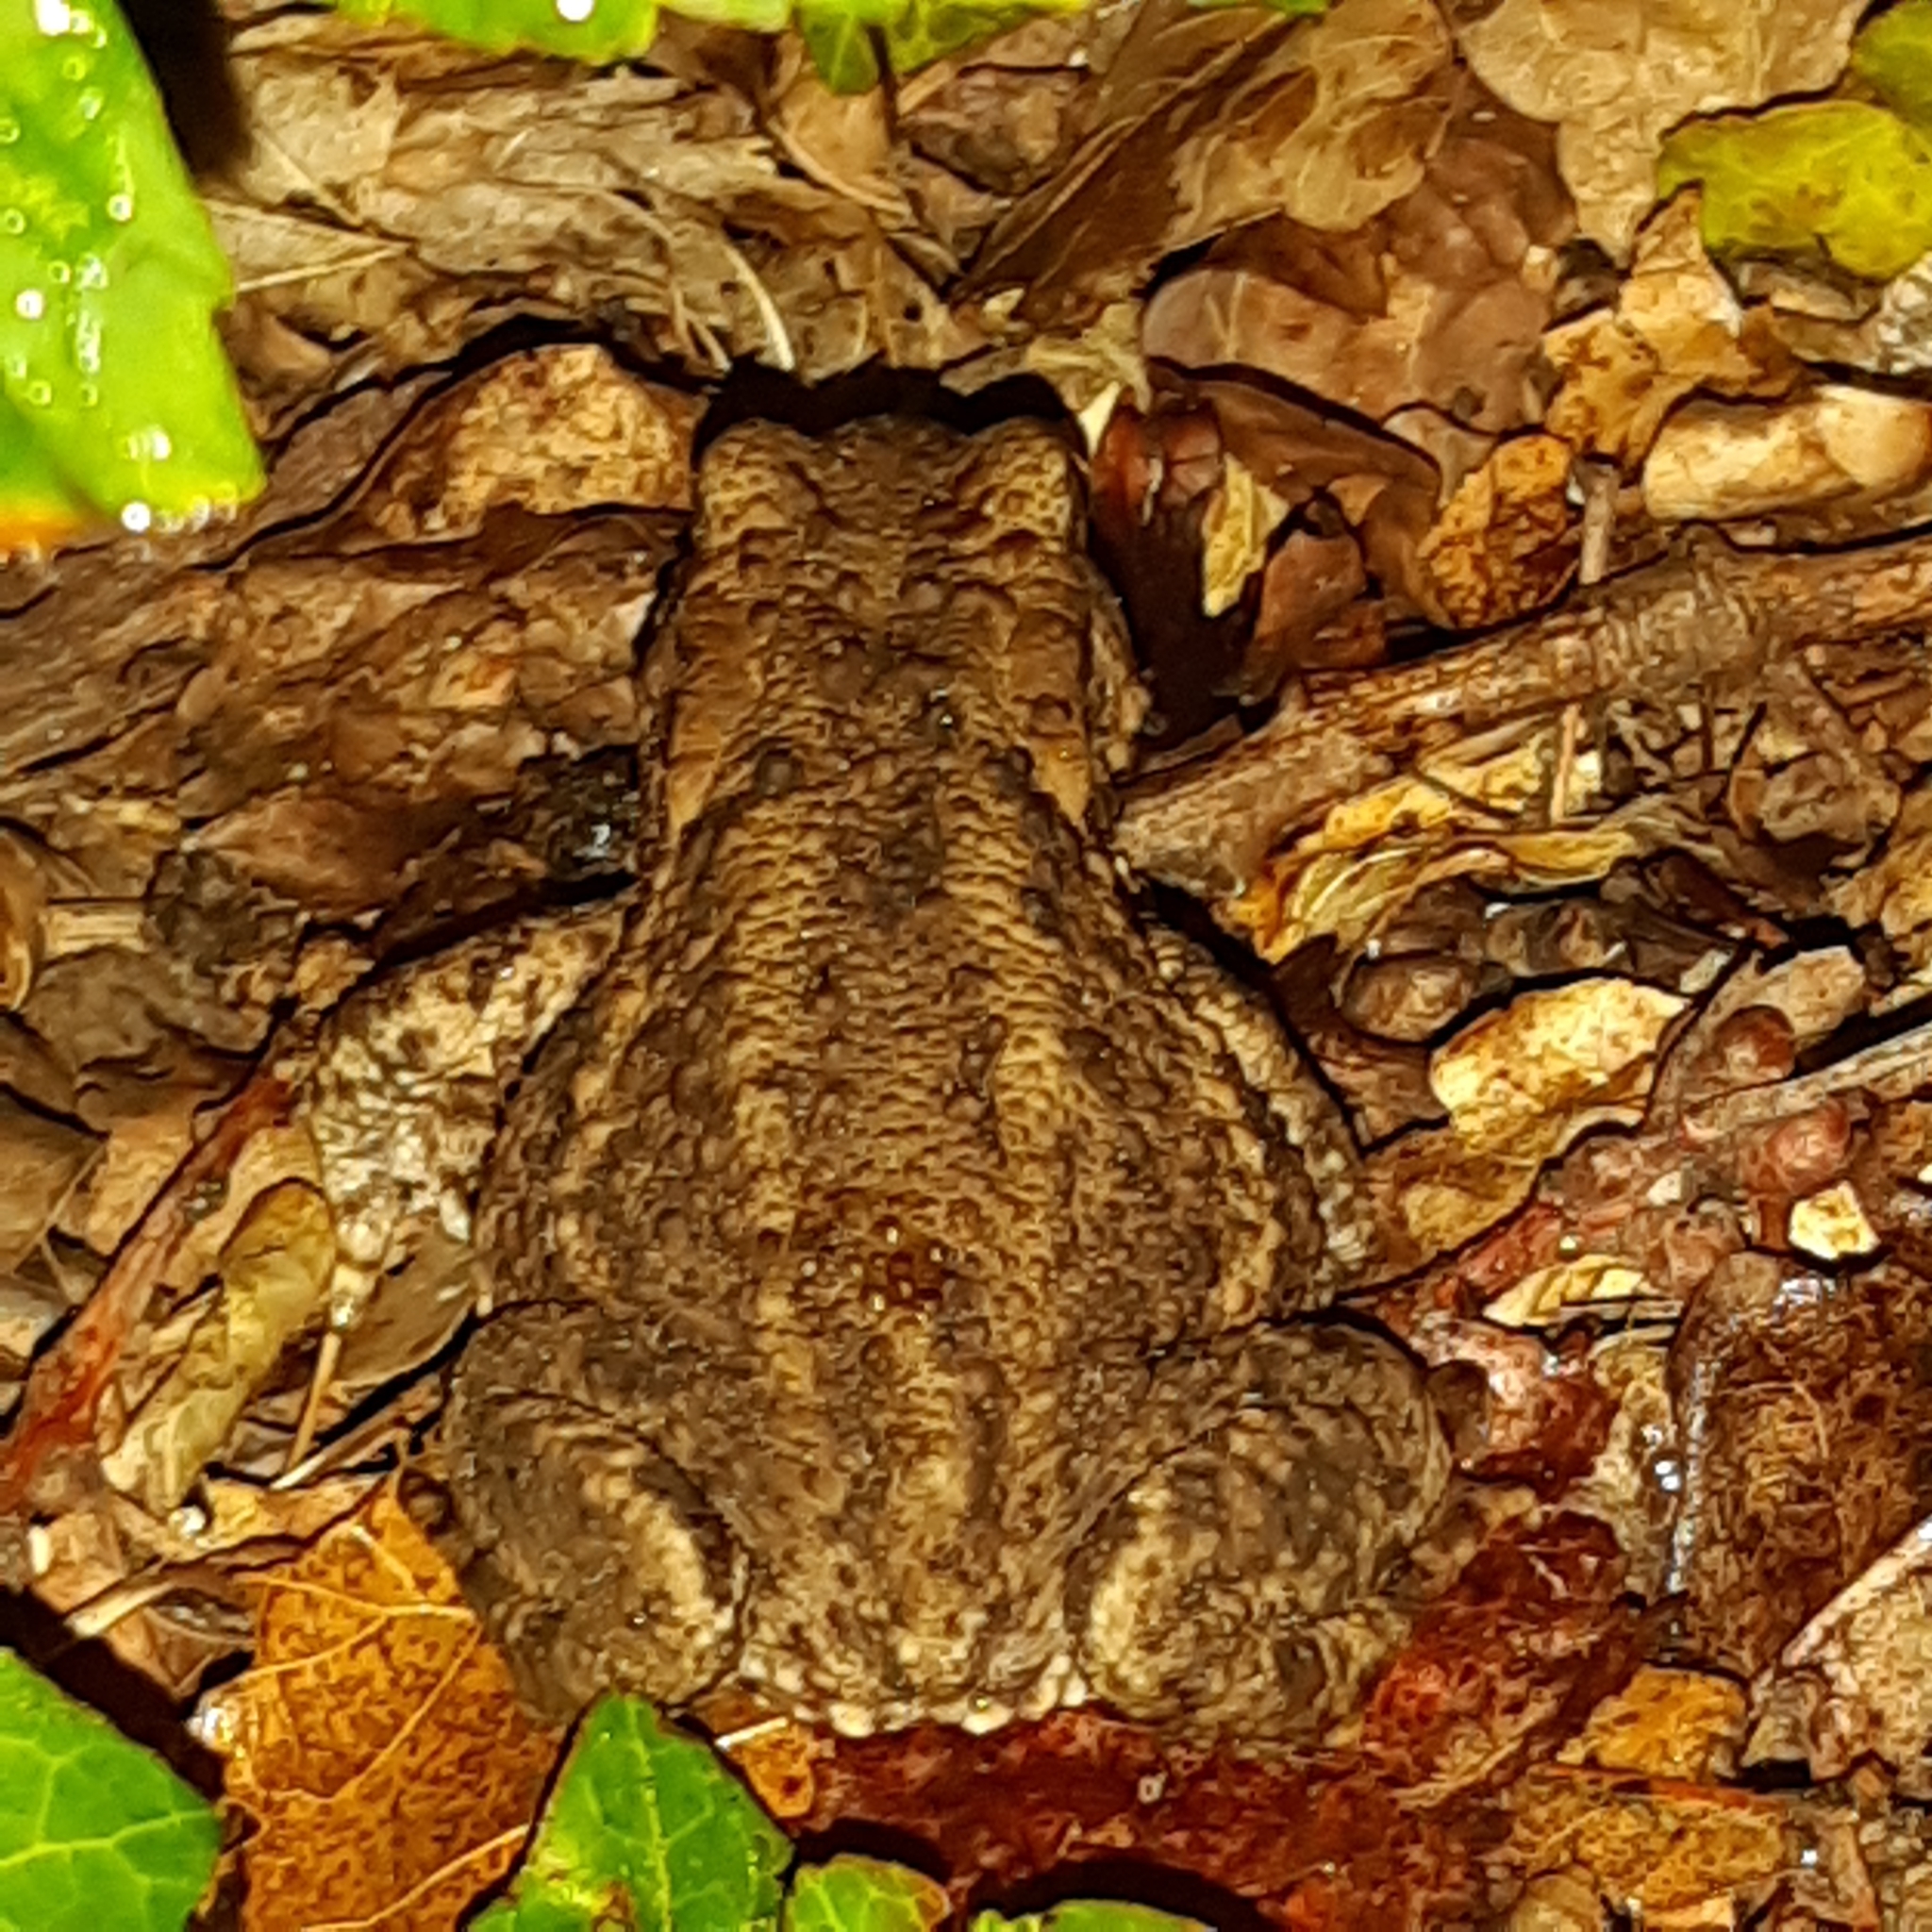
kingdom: Animalia
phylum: Chordata
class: Amphibia
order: Anura
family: Bufonidae
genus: Bufo
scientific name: Bufo bufo
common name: Common toad
